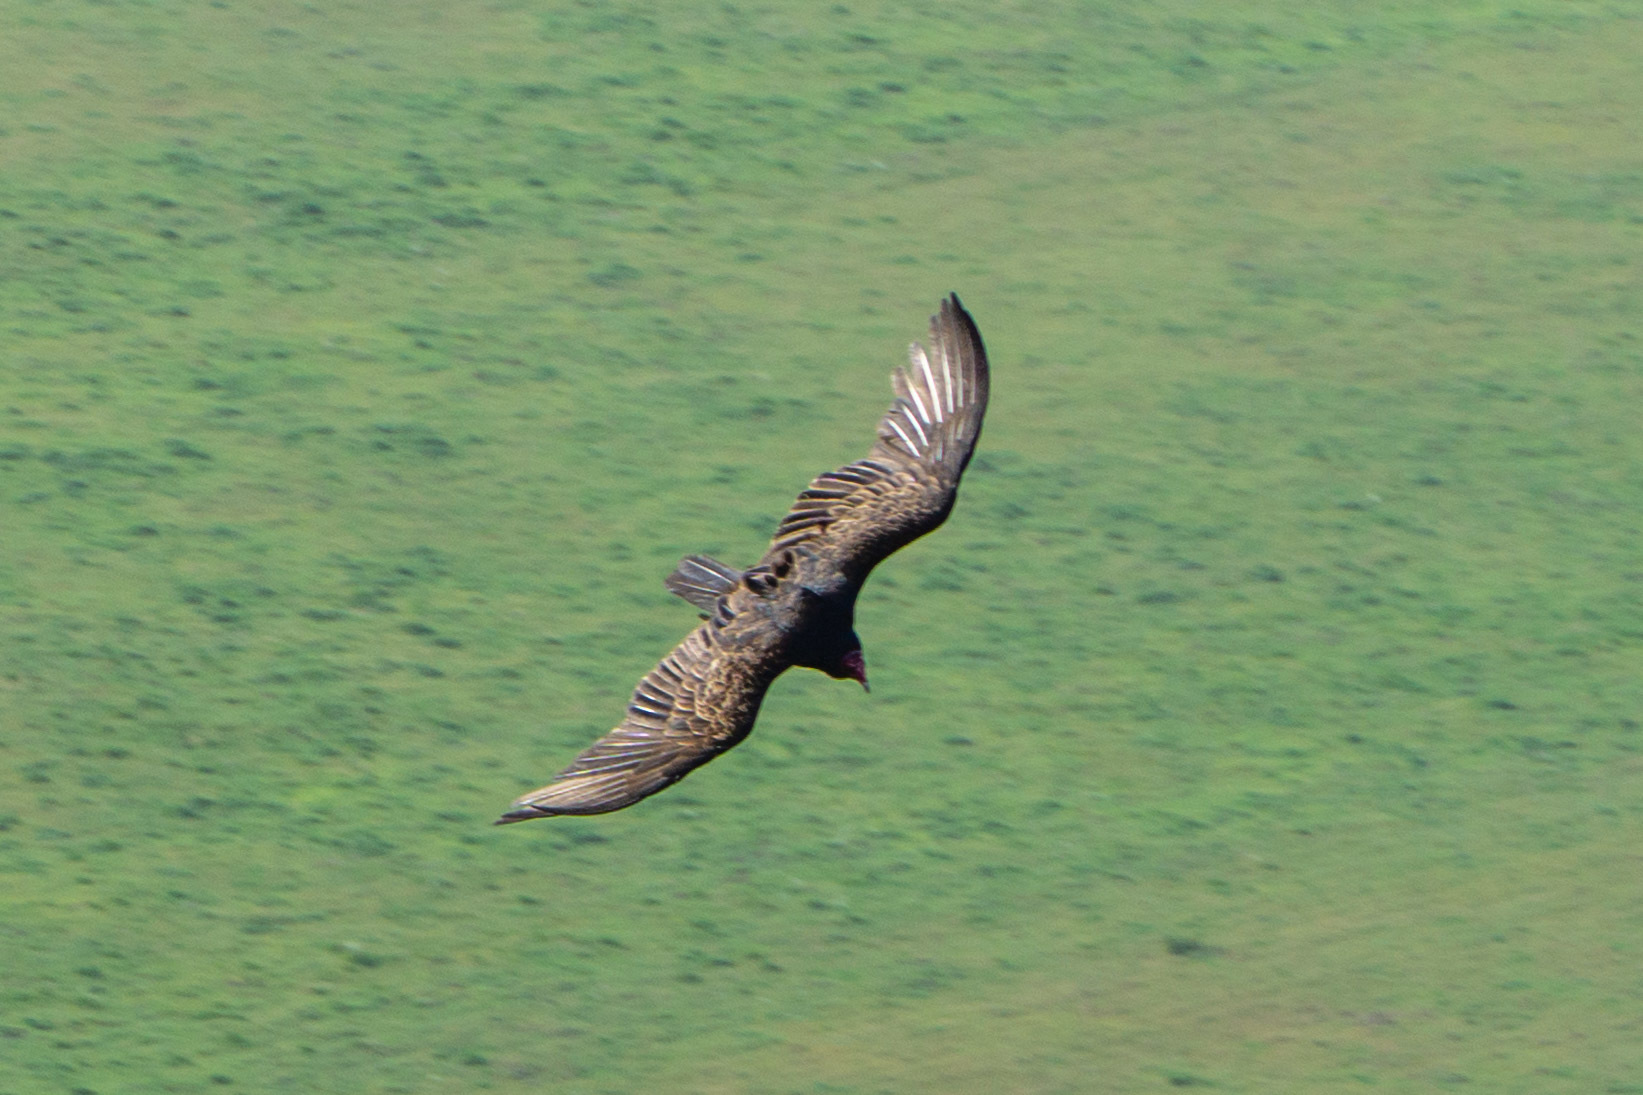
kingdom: Animalia
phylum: Chordata
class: Aves
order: Accipitriformes
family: Cathartidae
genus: Cathartes
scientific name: Cathartes aura
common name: Turkey vulture
